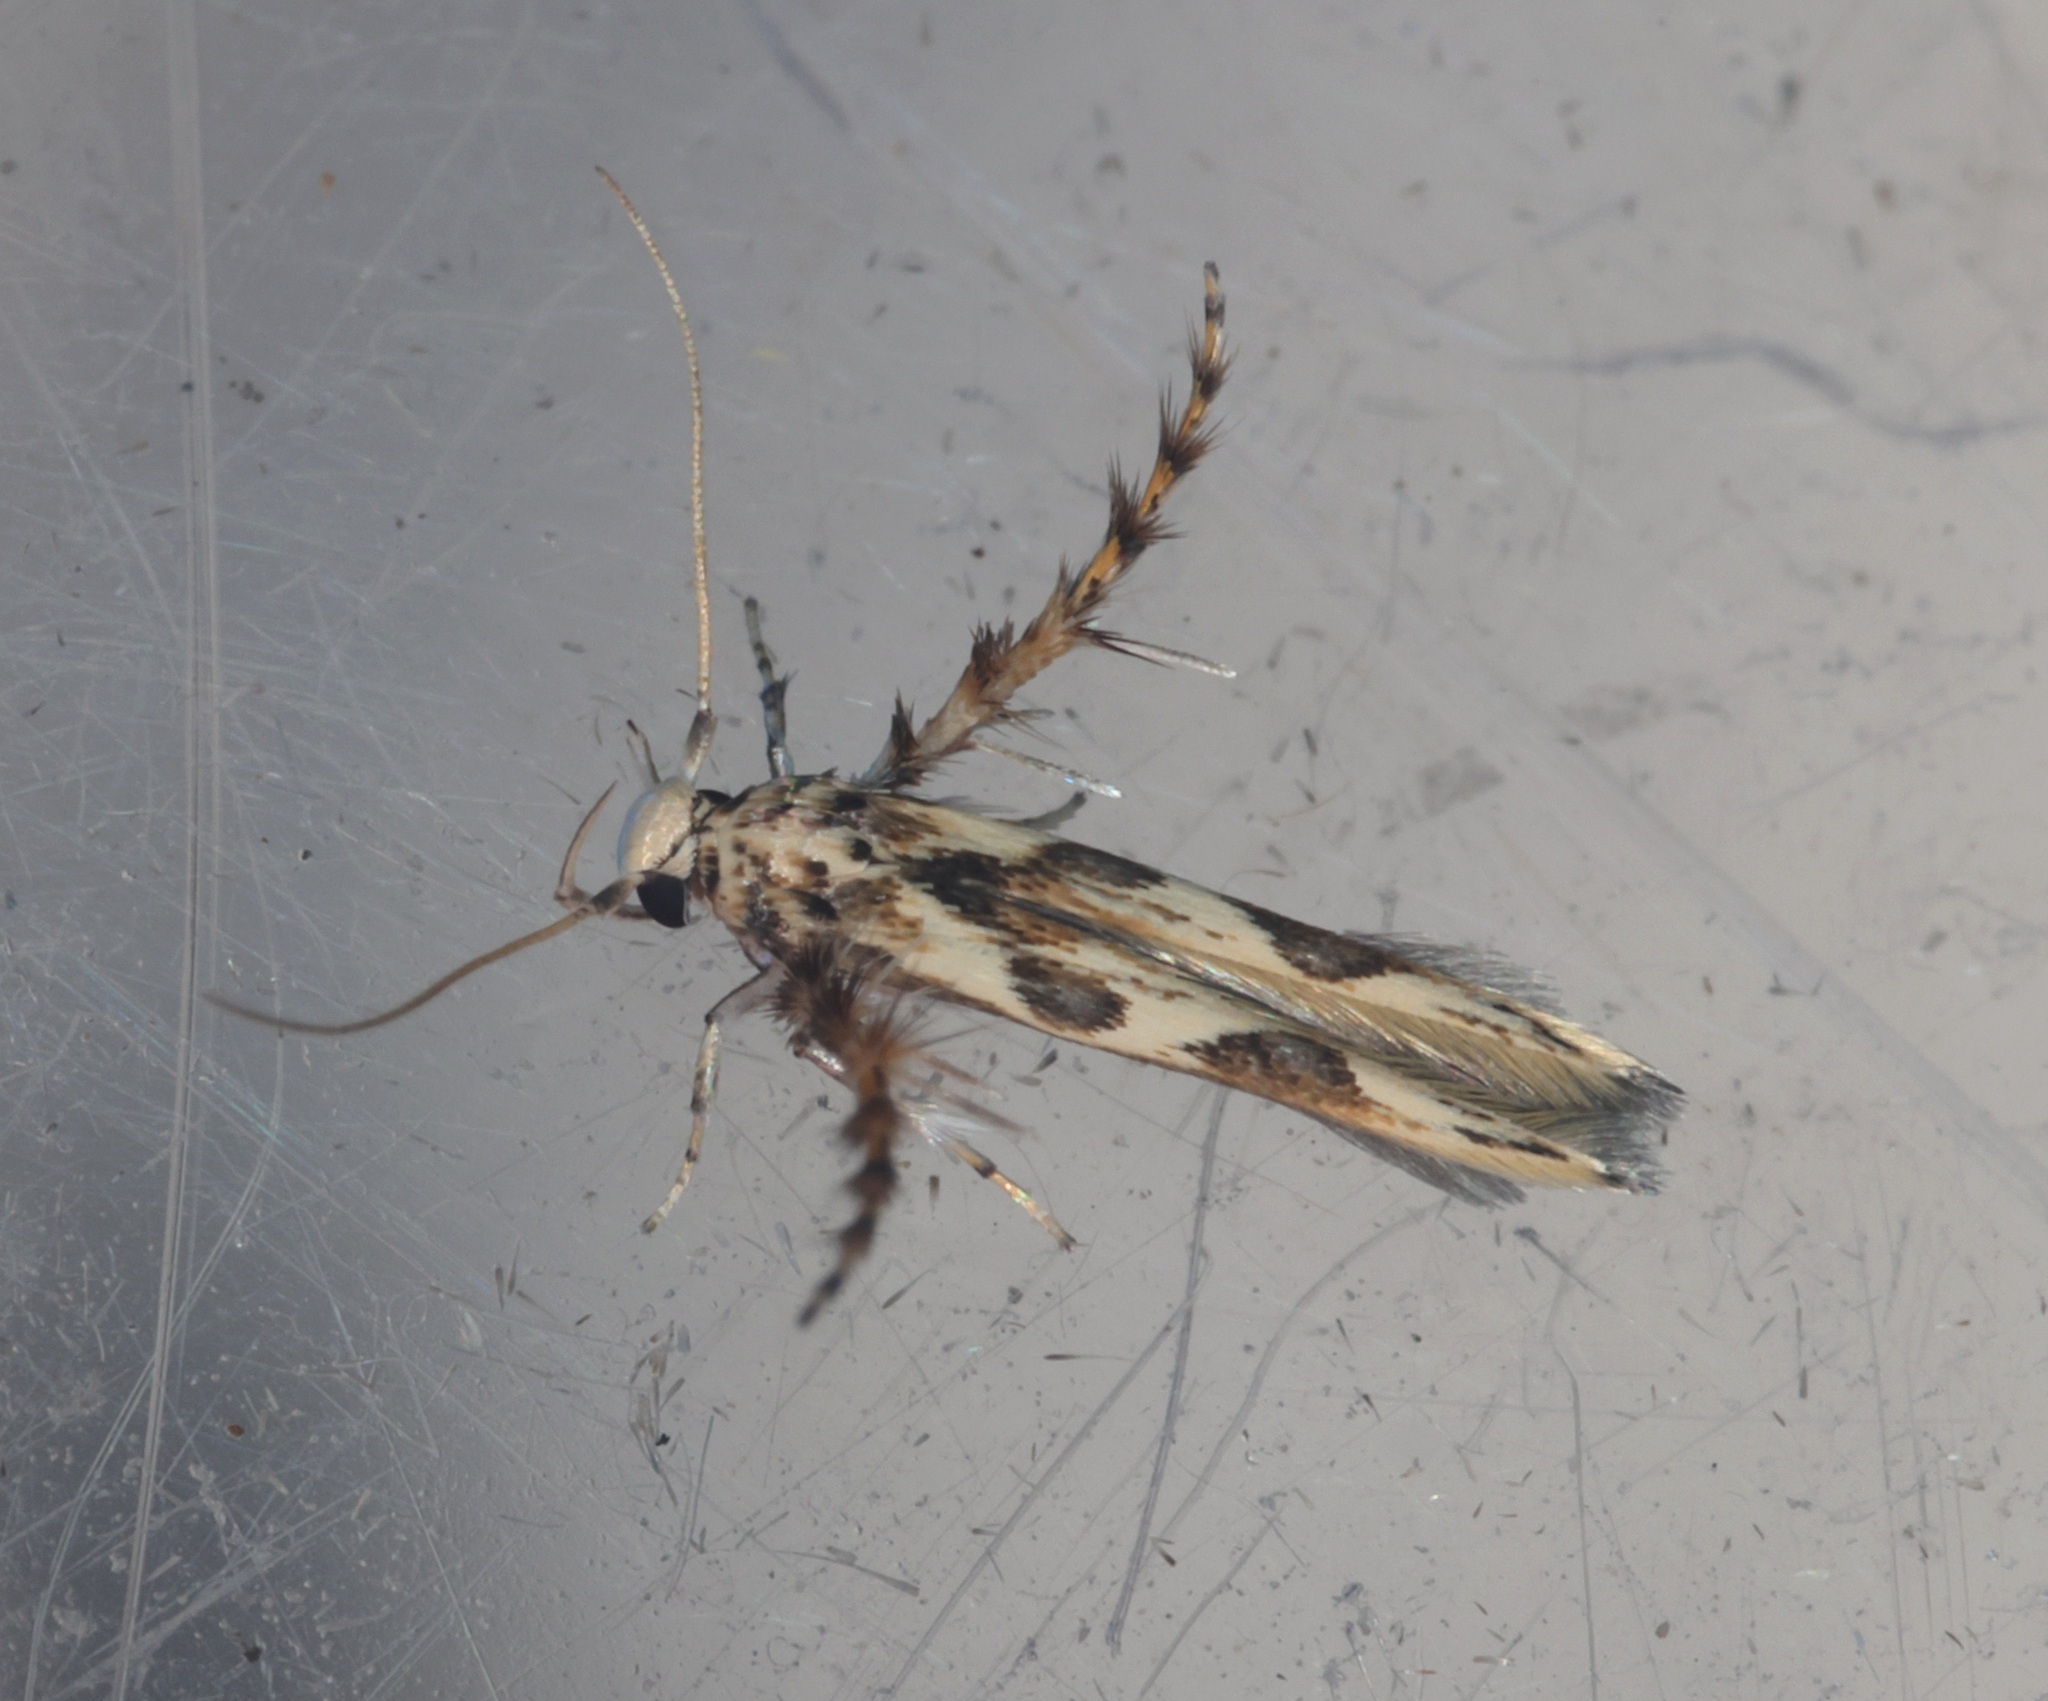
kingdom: Animalia
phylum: Arthropoda
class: Insecta
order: Lepidoptera
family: Stathmopodidae
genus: Stathmopoda
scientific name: Stathmopoda stimulata
